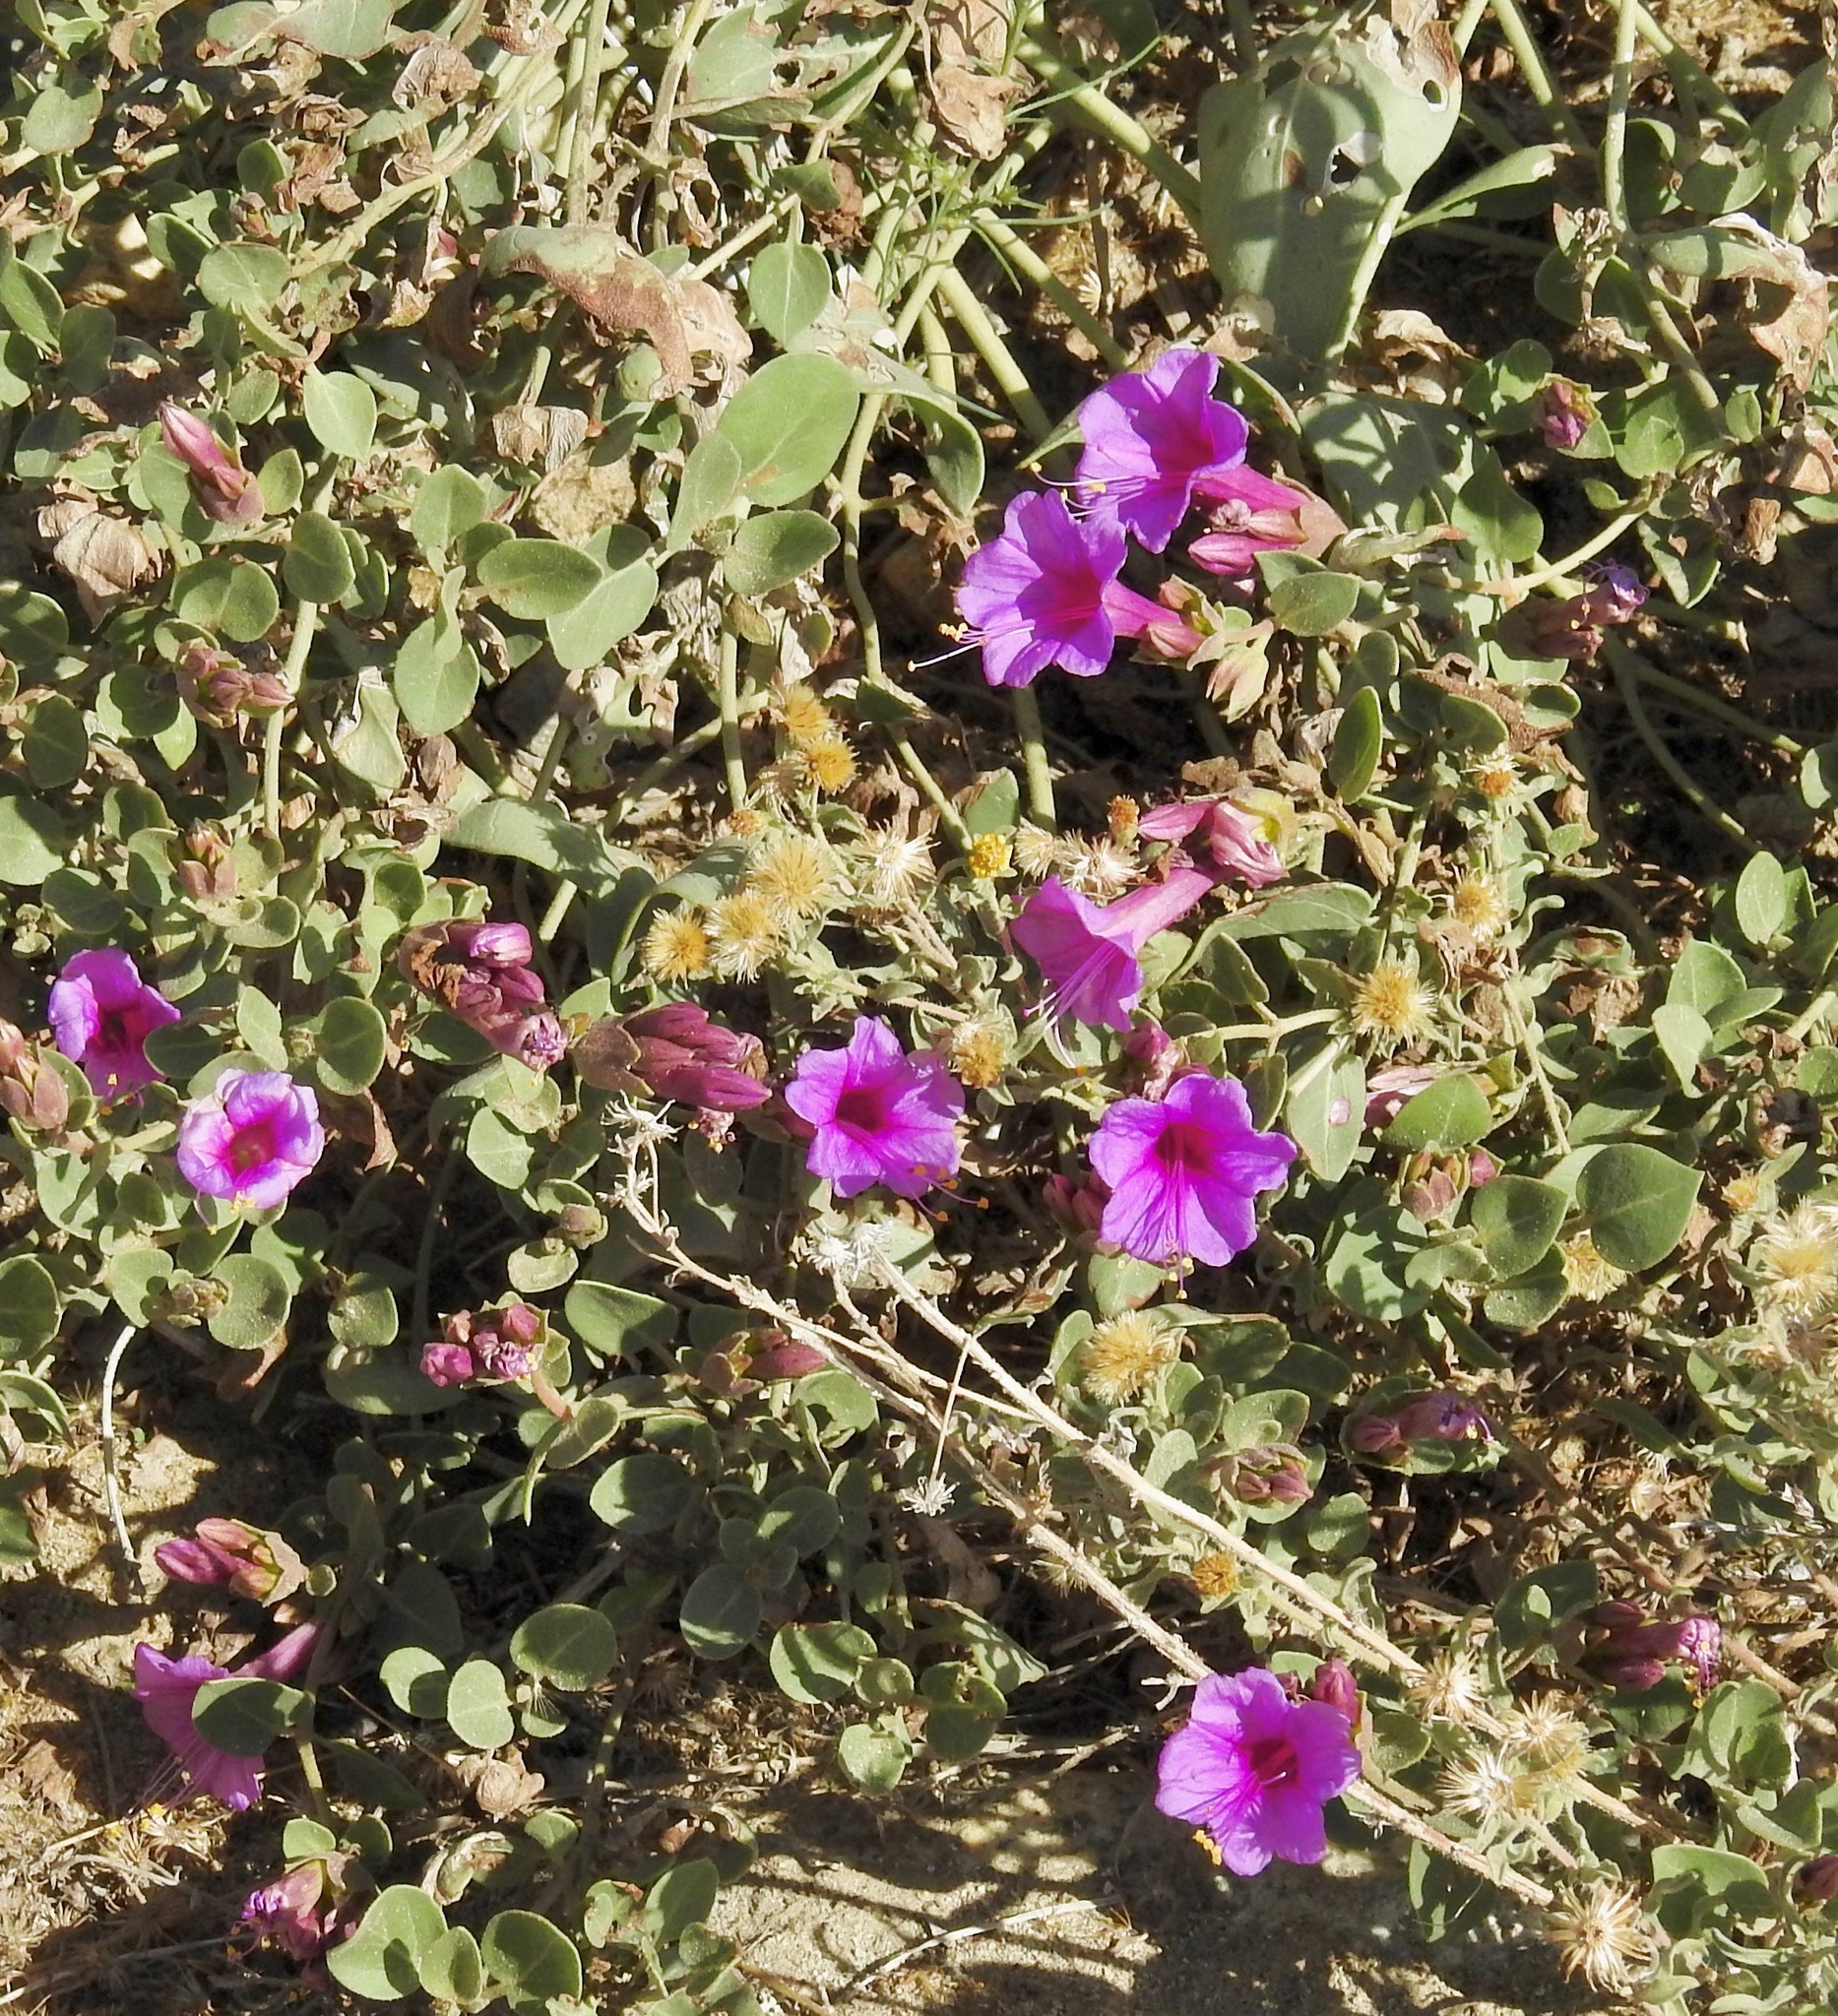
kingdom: Plantae
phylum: Tracheophyta
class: Magnoliopsida
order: Caryophyllales
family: Nyctaginaceae
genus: Mirabilis
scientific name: Mirabilis multiflora
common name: Froebel's four-o'clock
